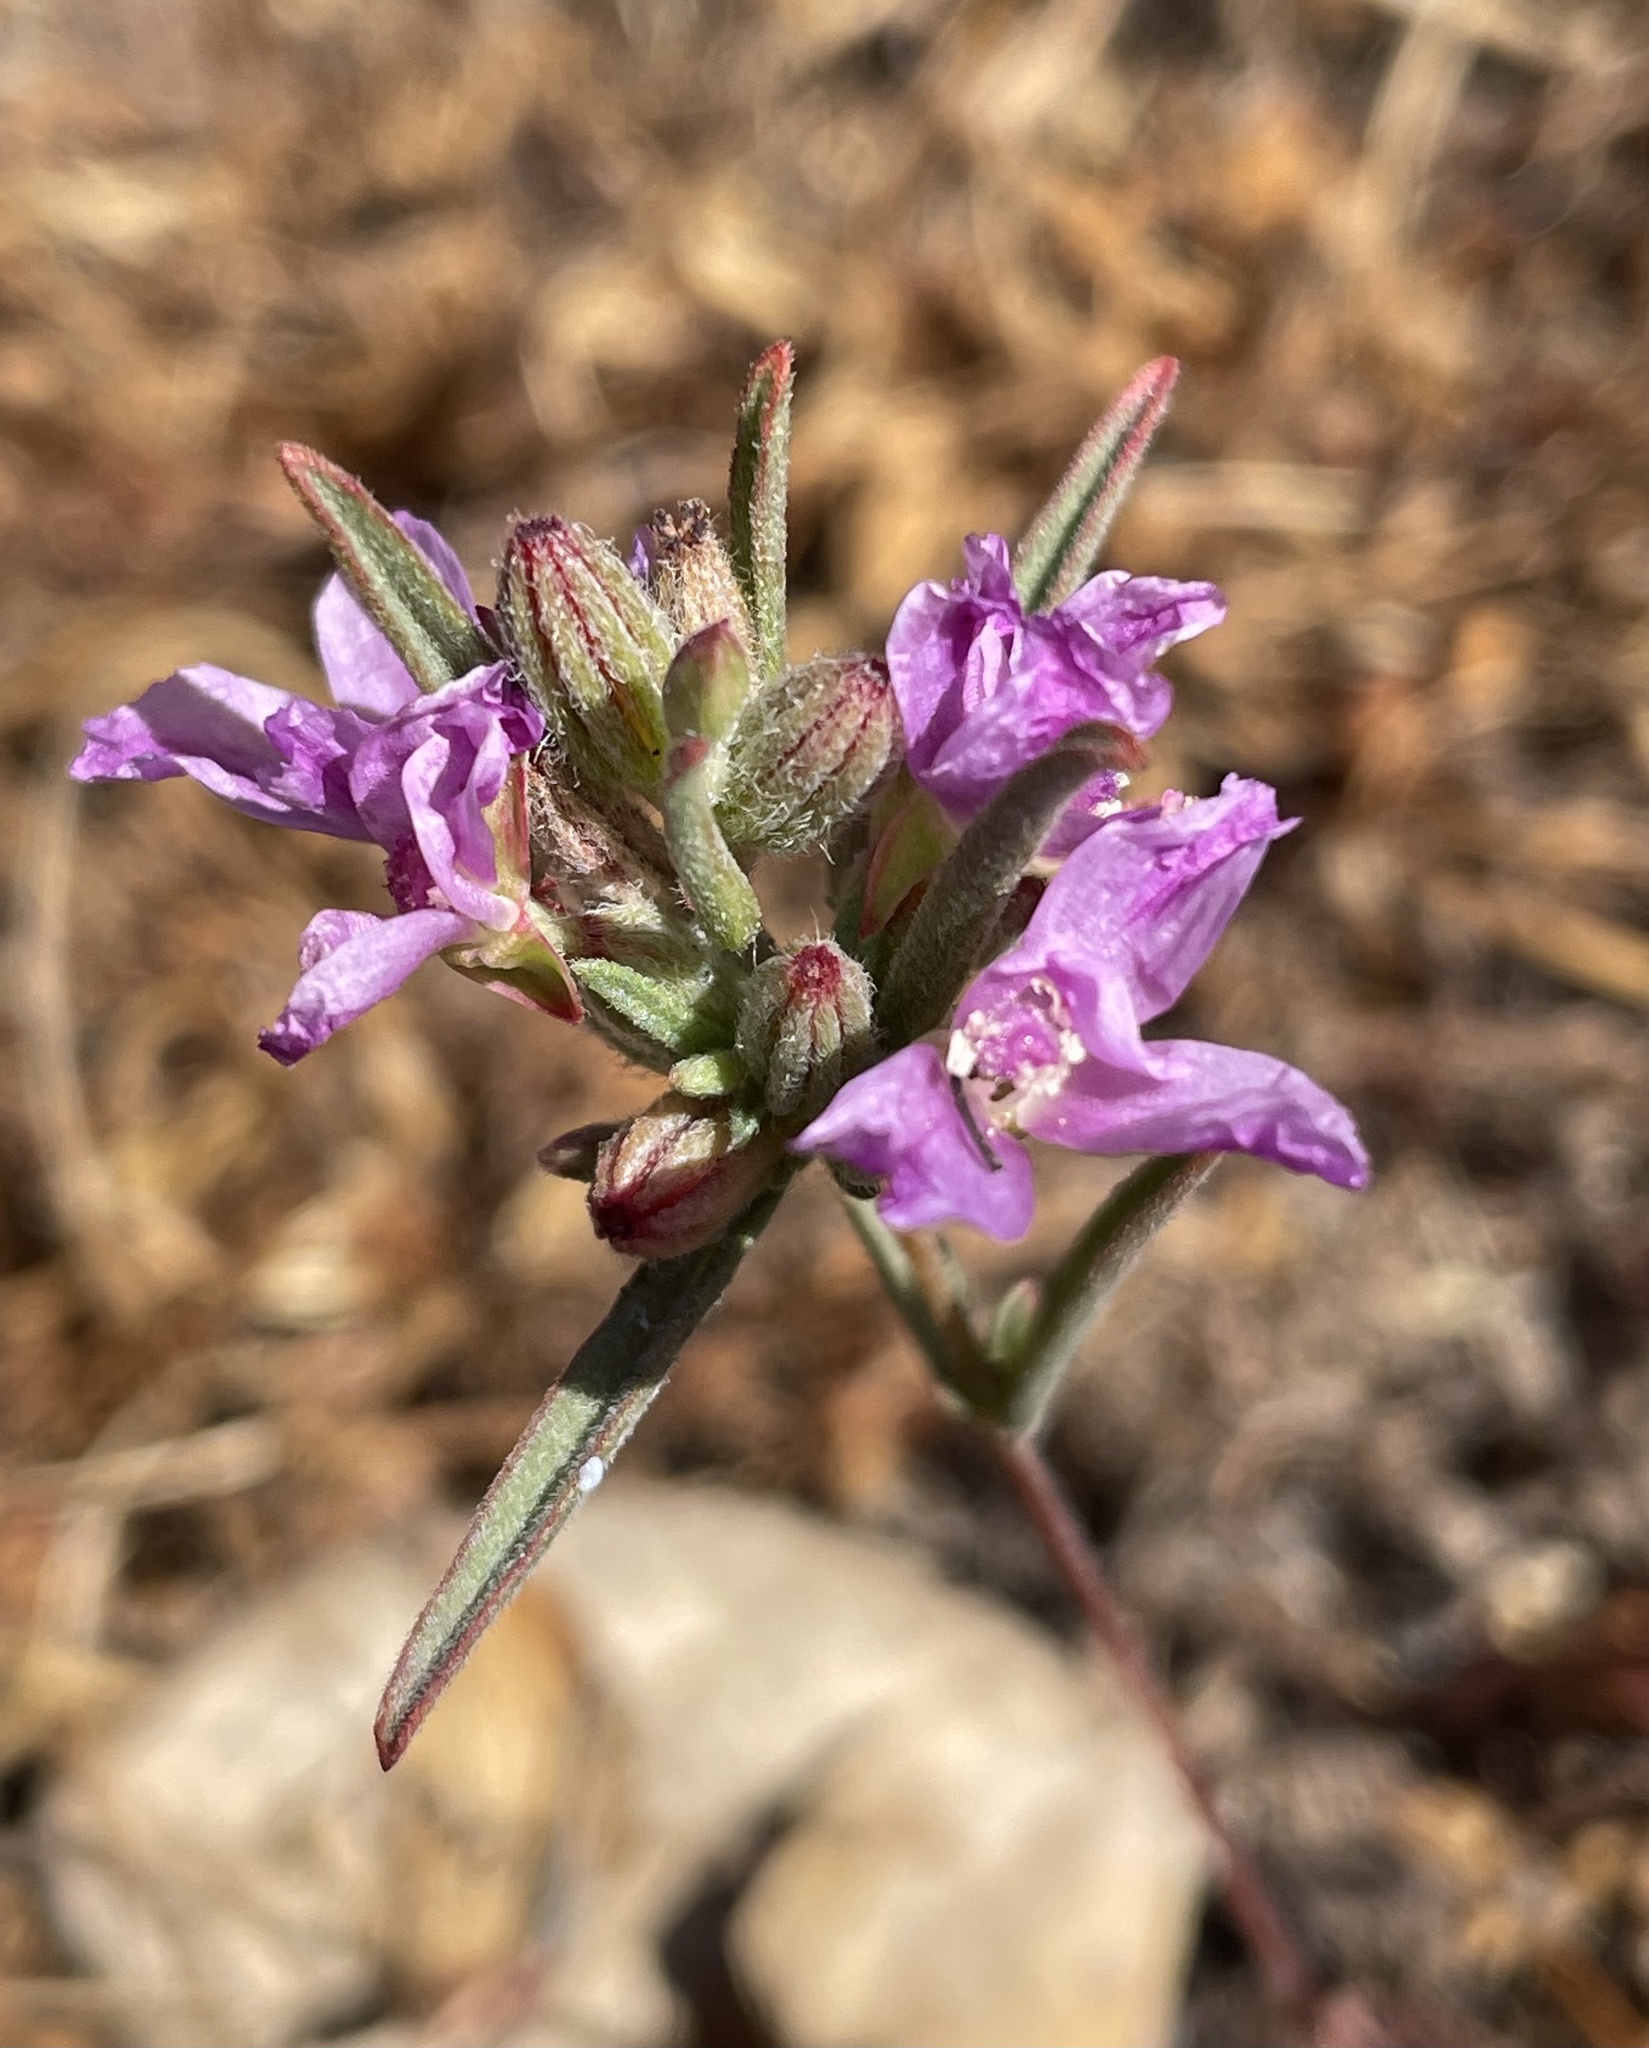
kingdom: Plantae
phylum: Tracheophyta
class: Magnoliopsida
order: Myrtales
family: Onagraceae
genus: Clarkia
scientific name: Clarkia purpurea
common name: Purple clarkia
